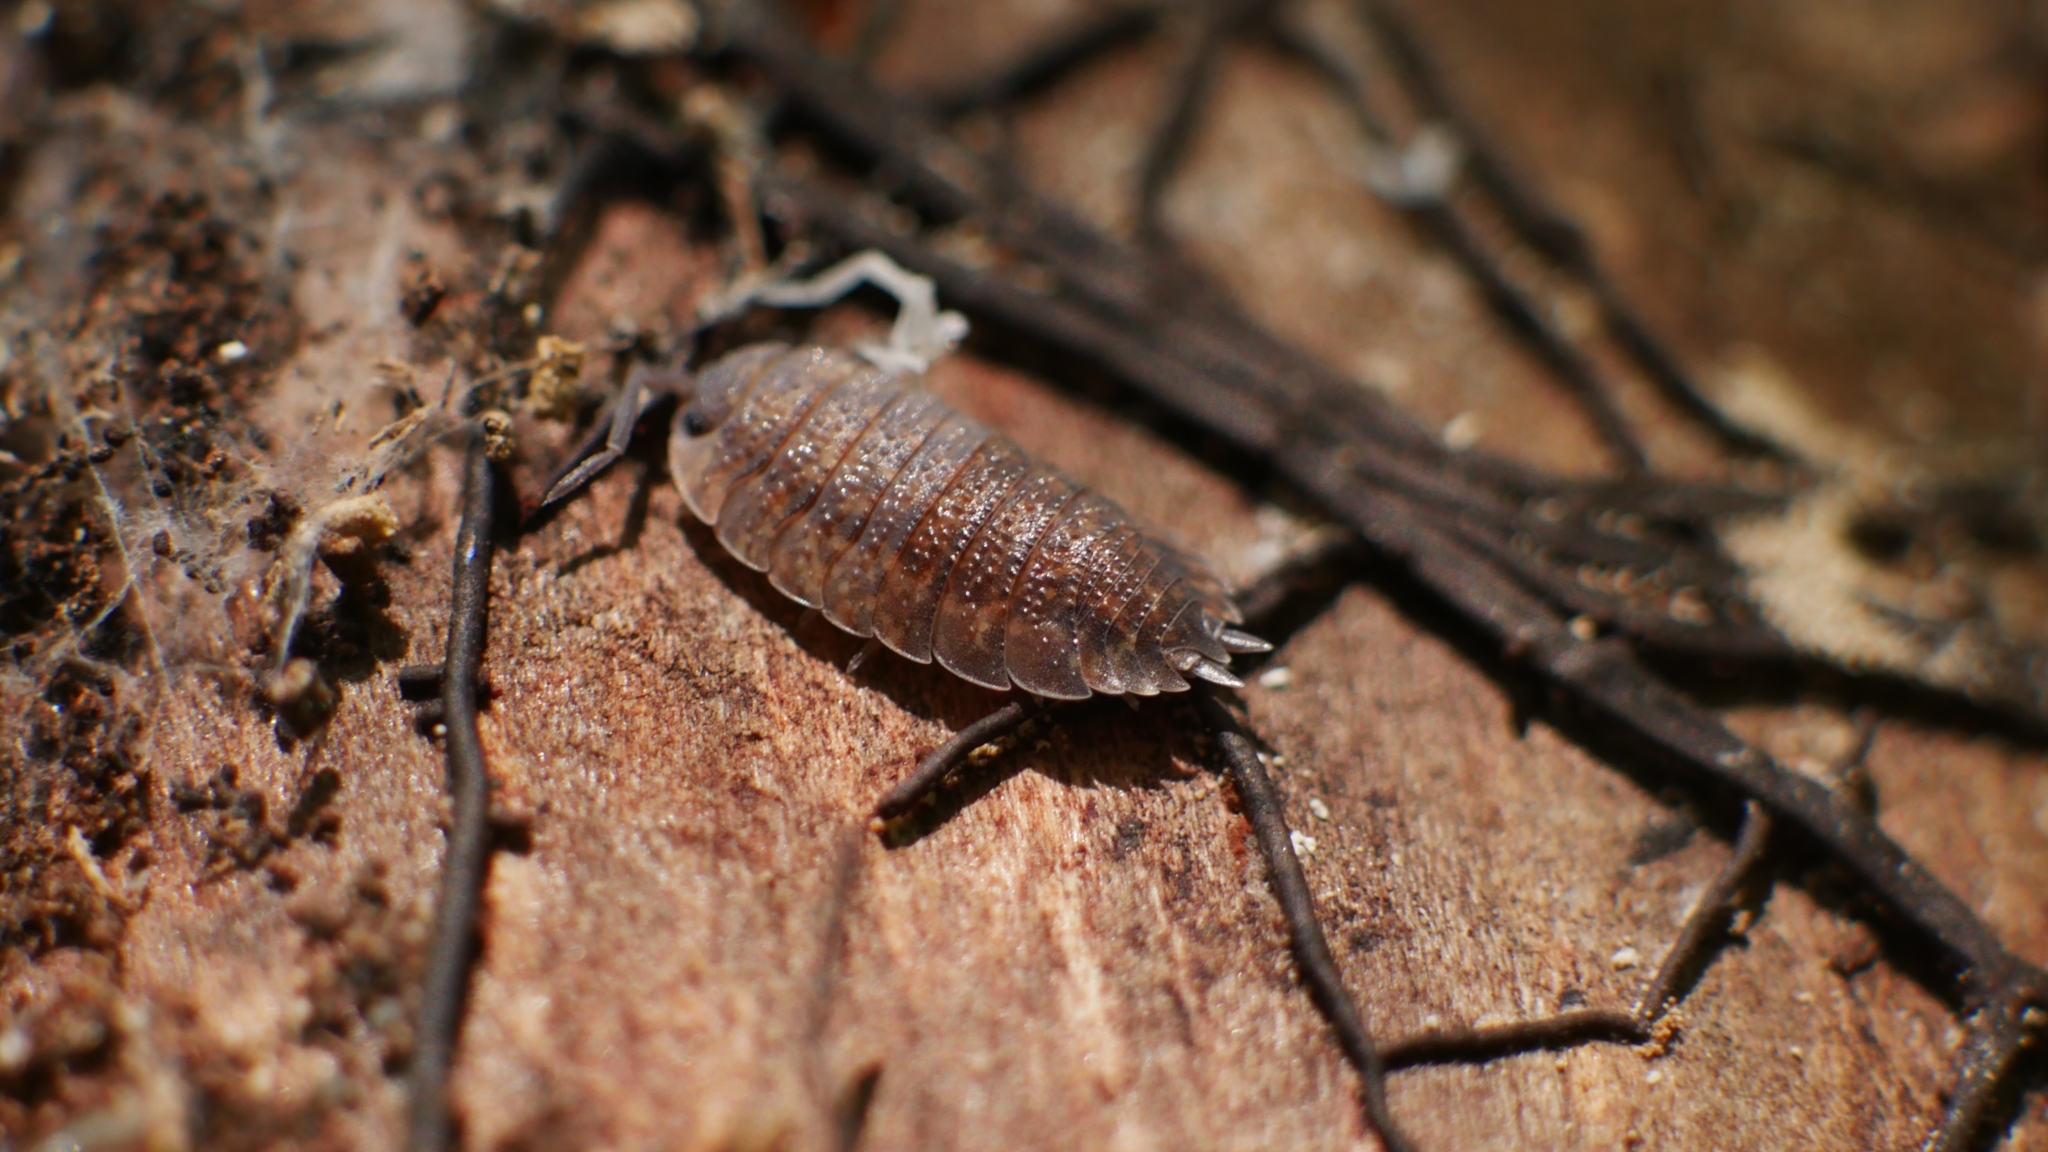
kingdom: Animalia
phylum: Arthropoda
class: Malacostraca
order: Isopoda
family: Porcellionidae
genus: Porcellio
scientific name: Porcellio scaber
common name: Common rough woodlouse
